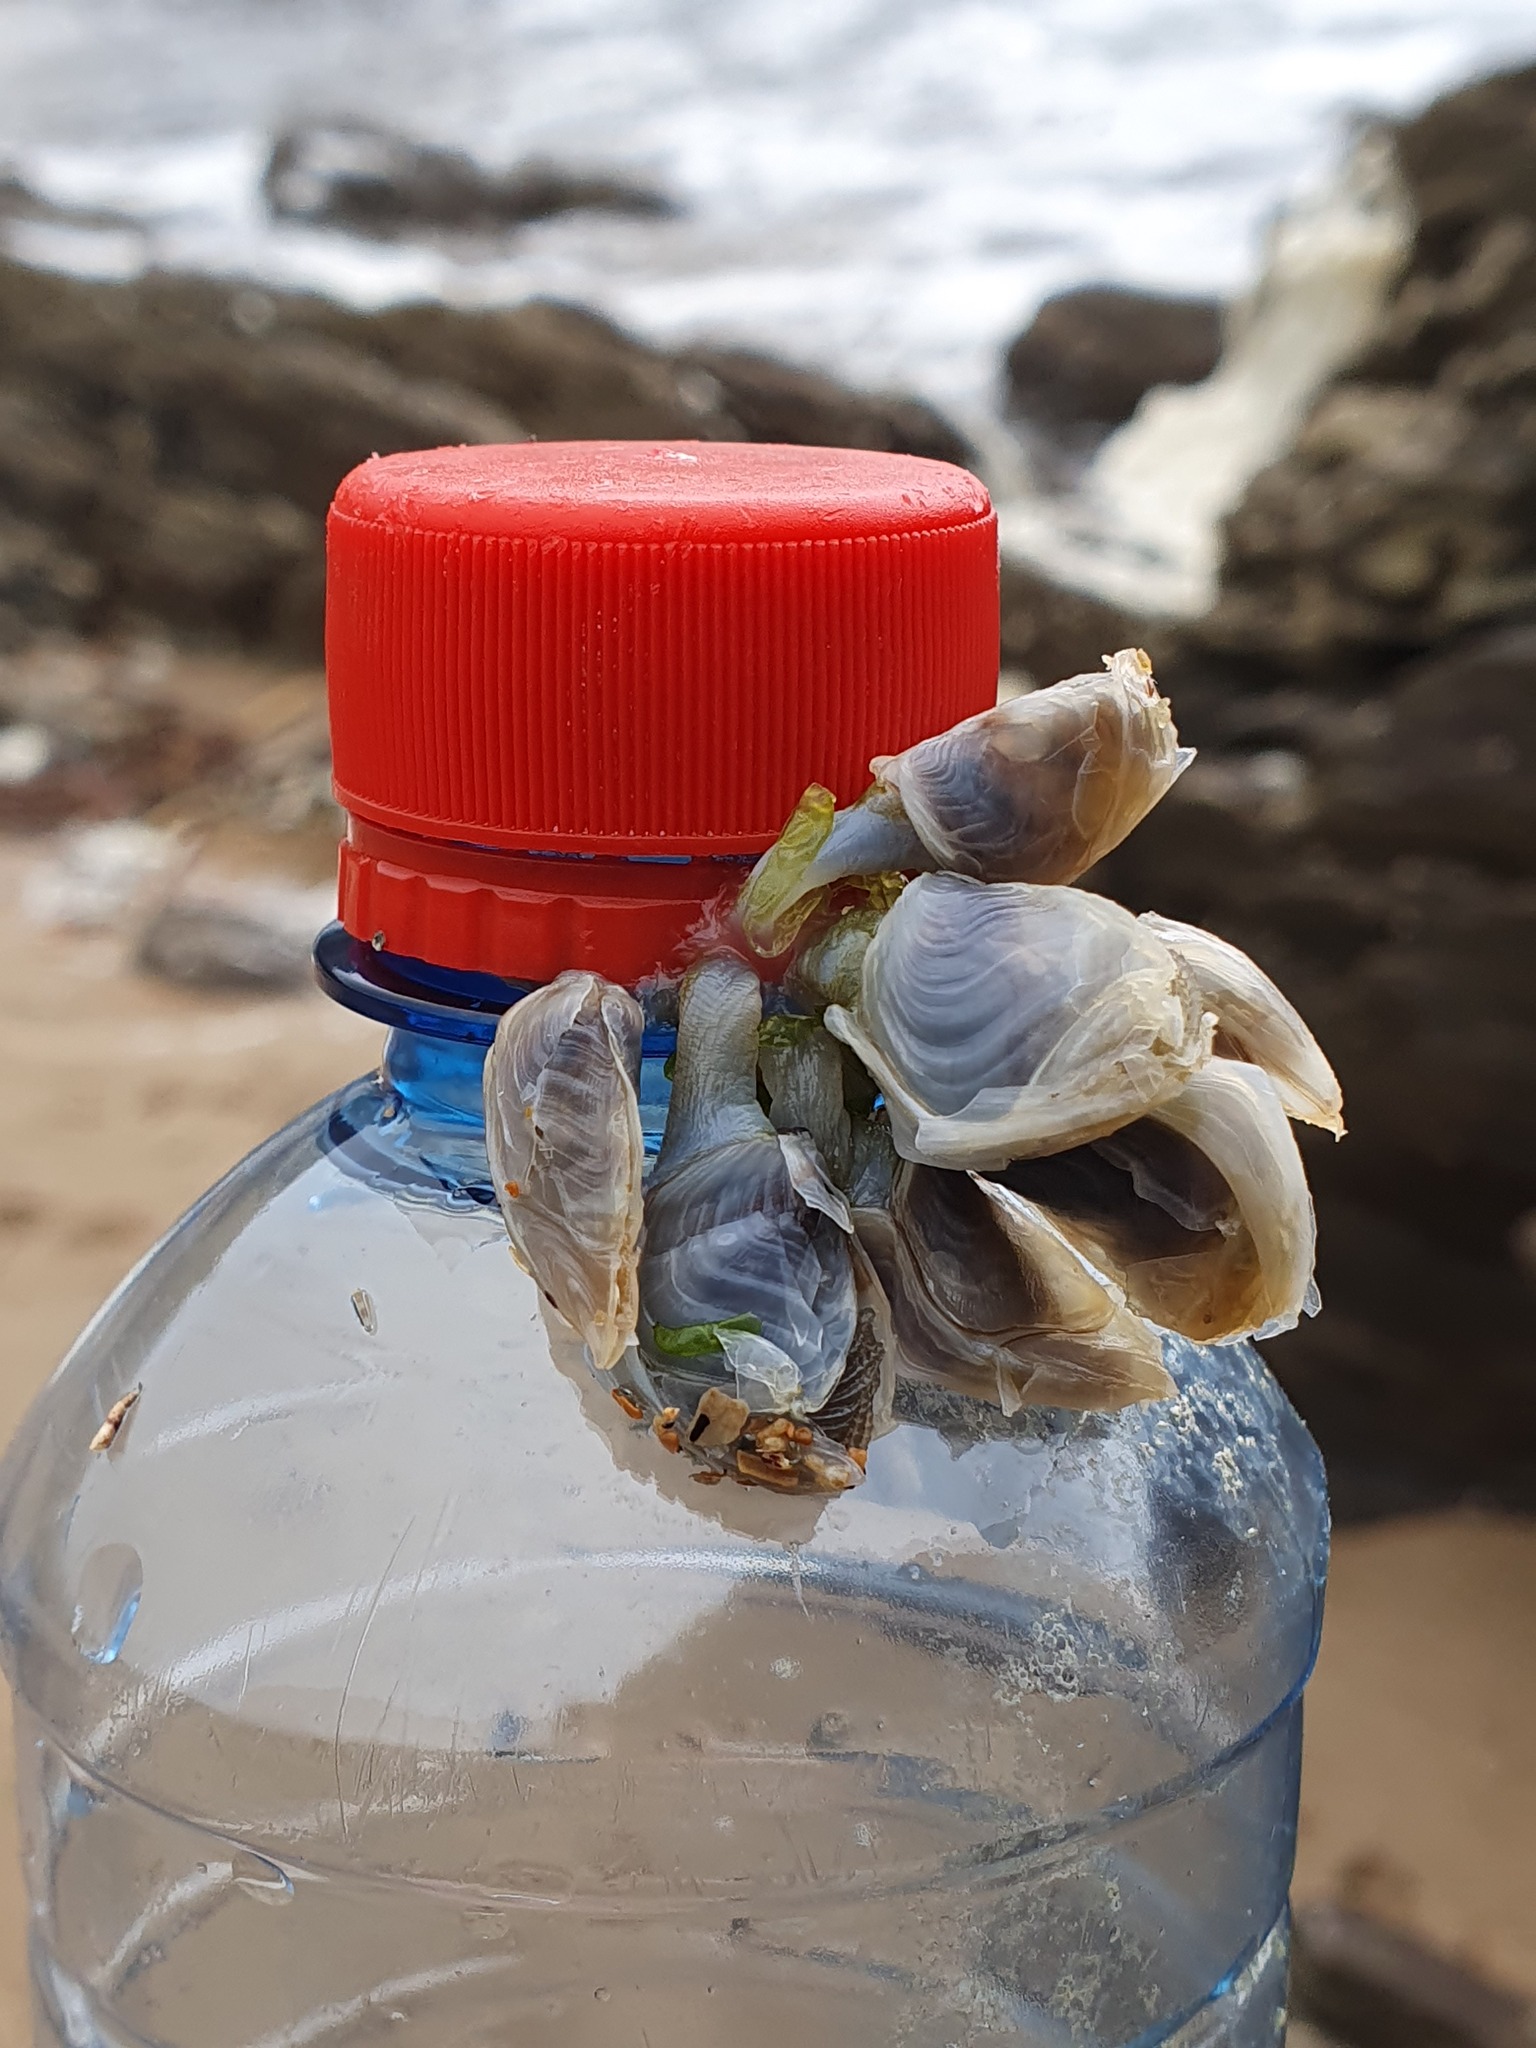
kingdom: Animalia
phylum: Arthropoda
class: Maxillopoda
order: Pedunculata
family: Lepadidae
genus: Dosima
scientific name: Dosima fascicularis
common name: Buoy barnacle
